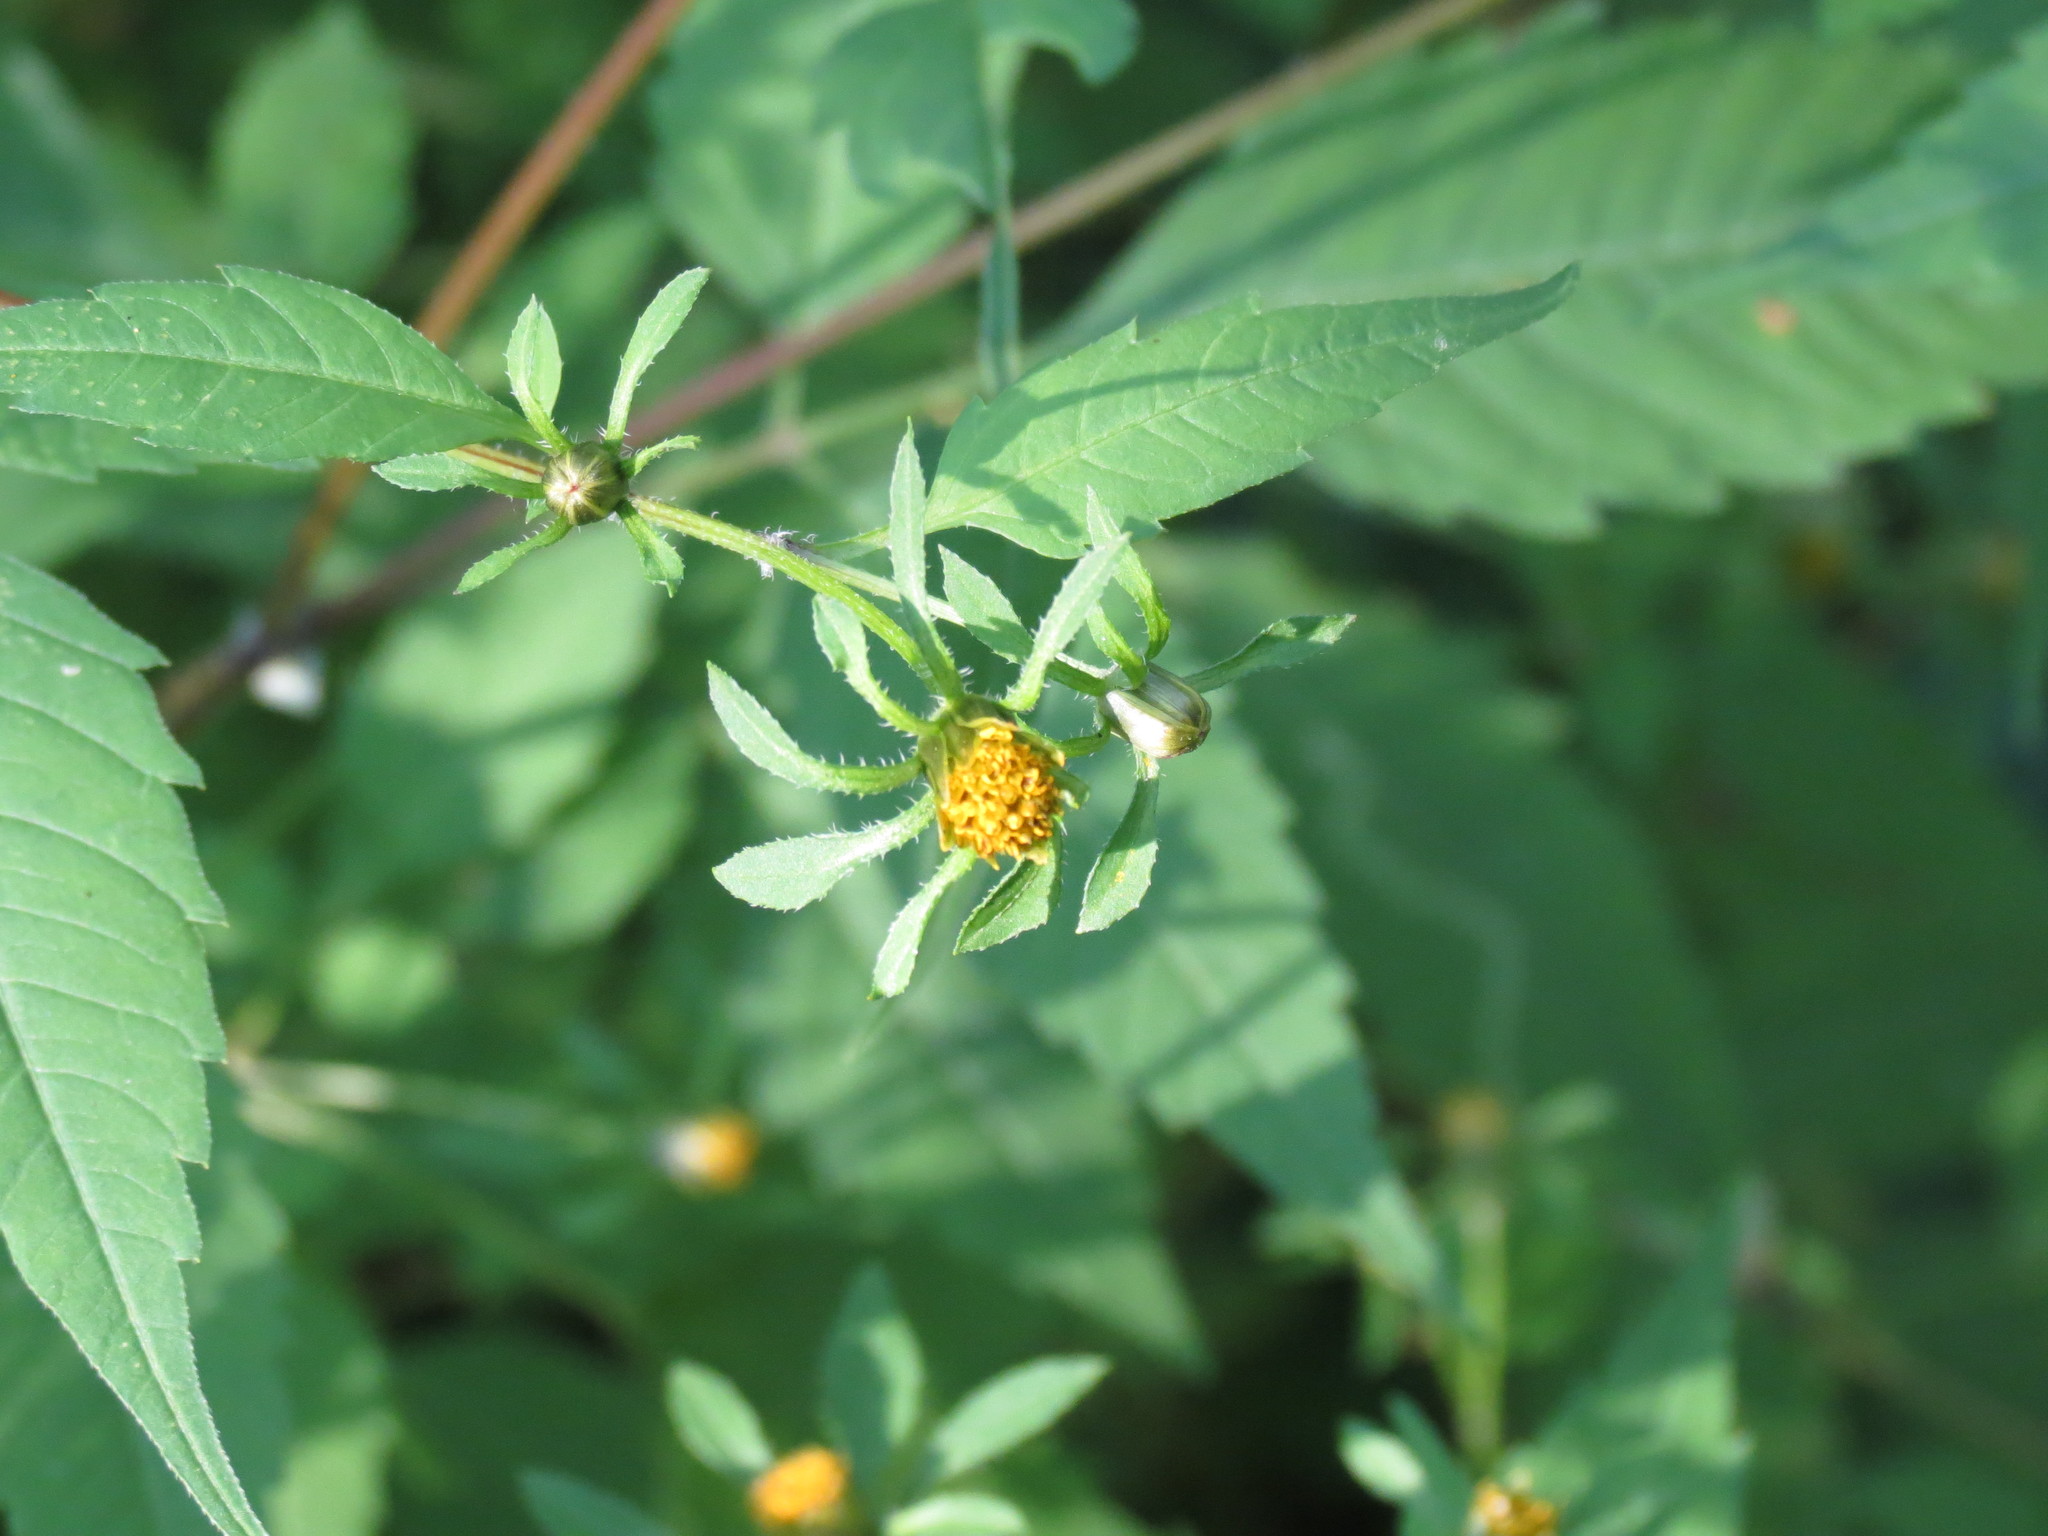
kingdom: Plantae
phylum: Tracheophyta
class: Magnoliopsida
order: Asterales
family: Asteraceae
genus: Bidens
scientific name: Bidens frondosa
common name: Beggarticks
